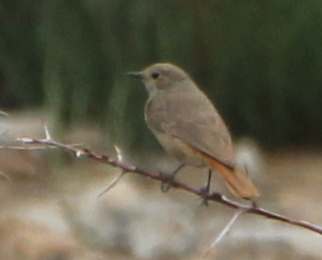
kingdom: Animalia
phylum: Chordata
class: Aves
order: Passeriformes
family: Muscicapidae
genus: Phoenicurus
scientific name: Phoenicurus erythrogastrus
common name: Güldenstädt's redstart
